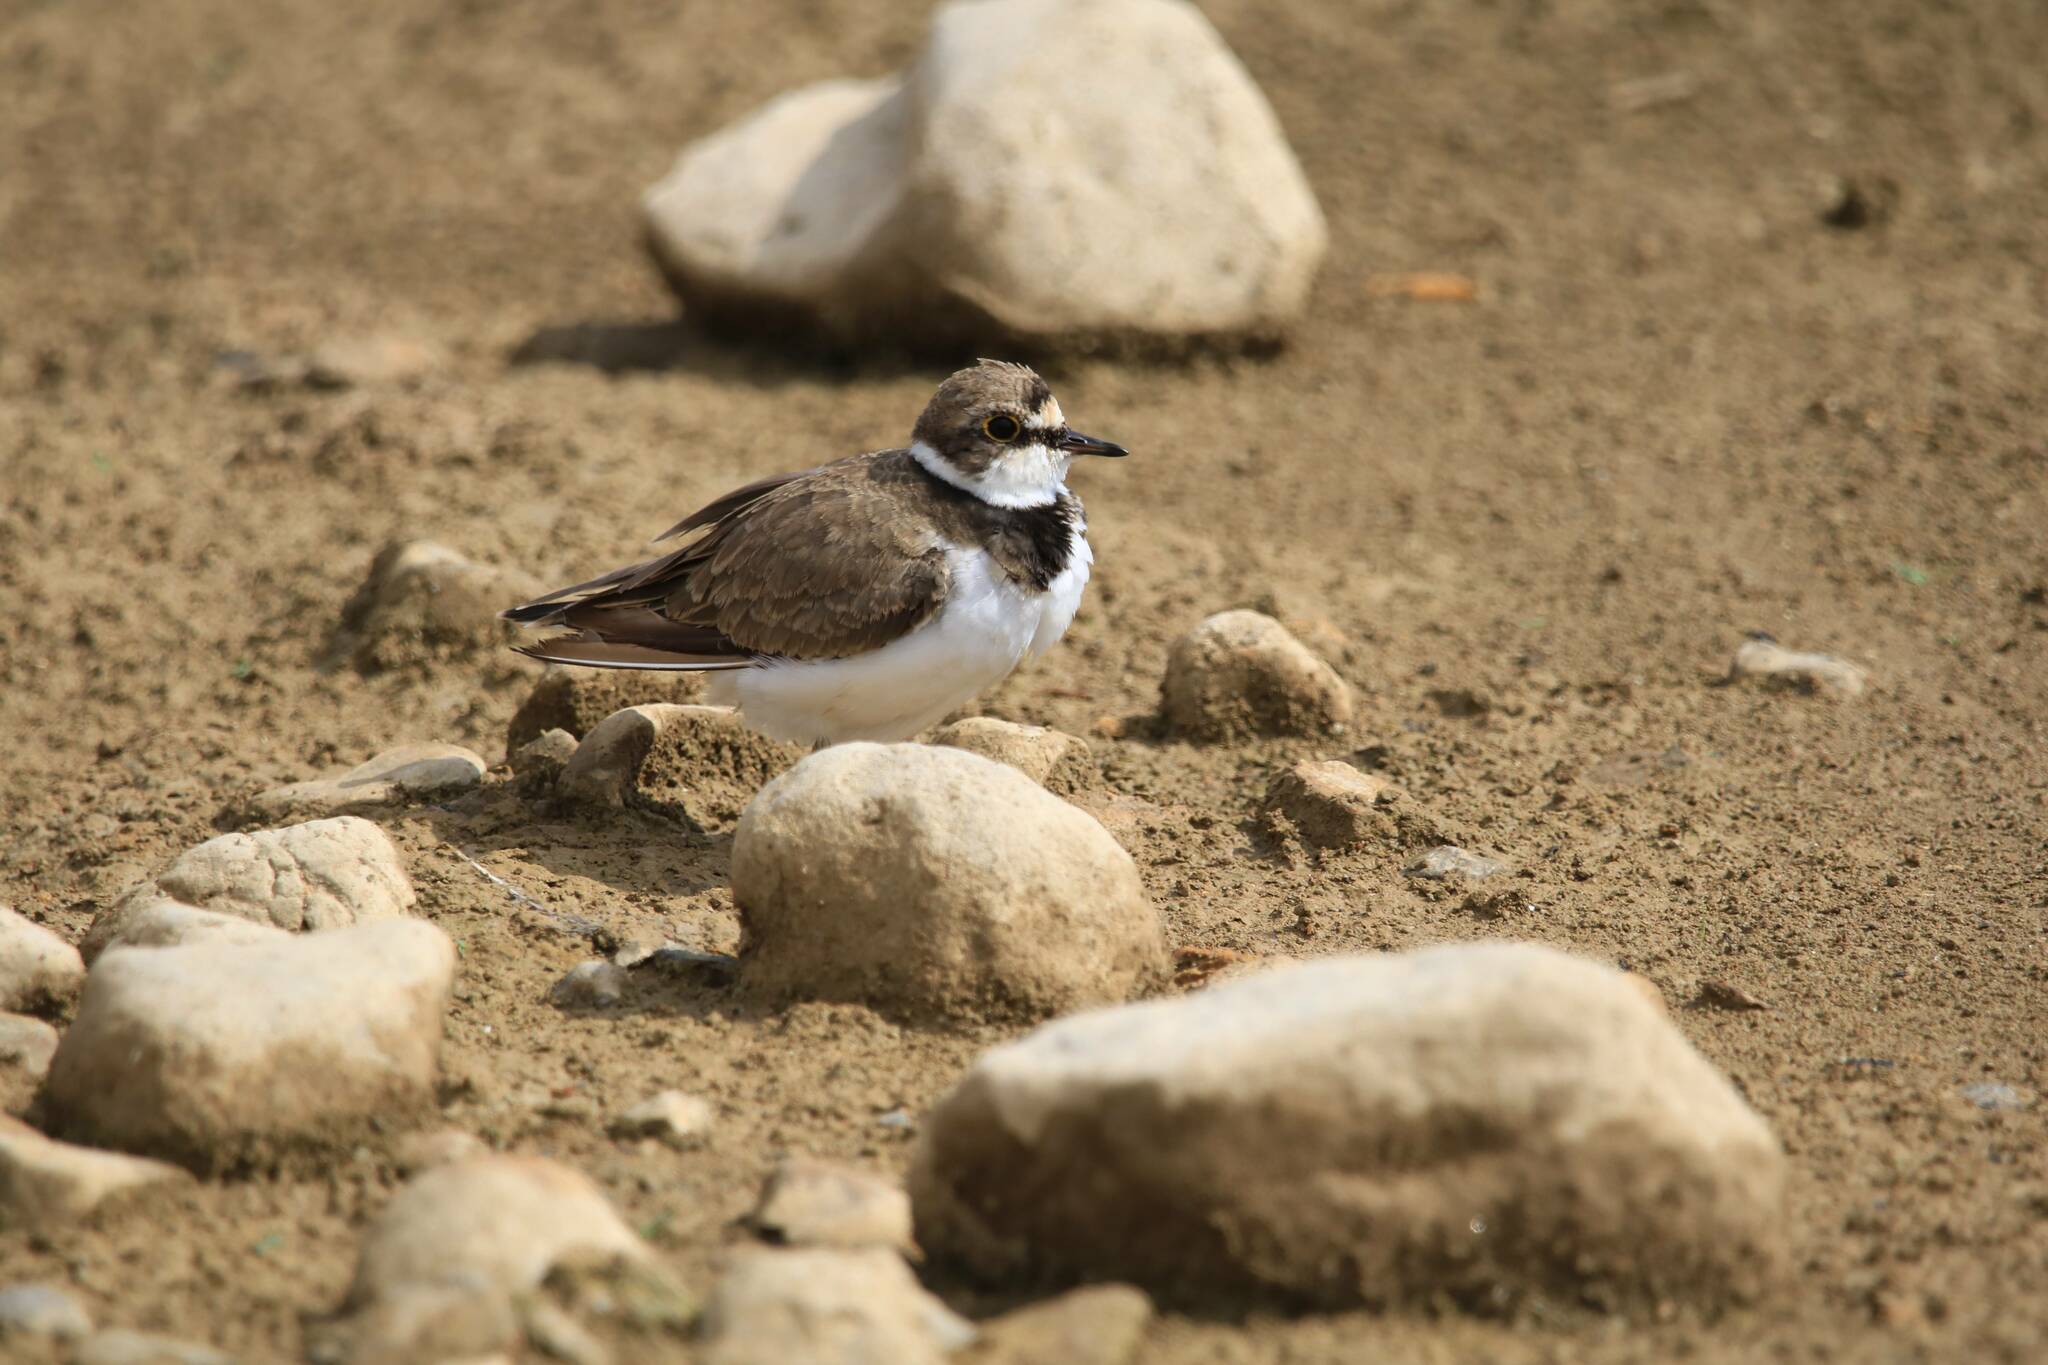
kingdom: Animalia
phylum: Chordata
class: Aves
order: Charadriiformes
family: Charadriidae
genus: Charadrius
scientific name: Charadrius dubius
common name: Little ringed plover
